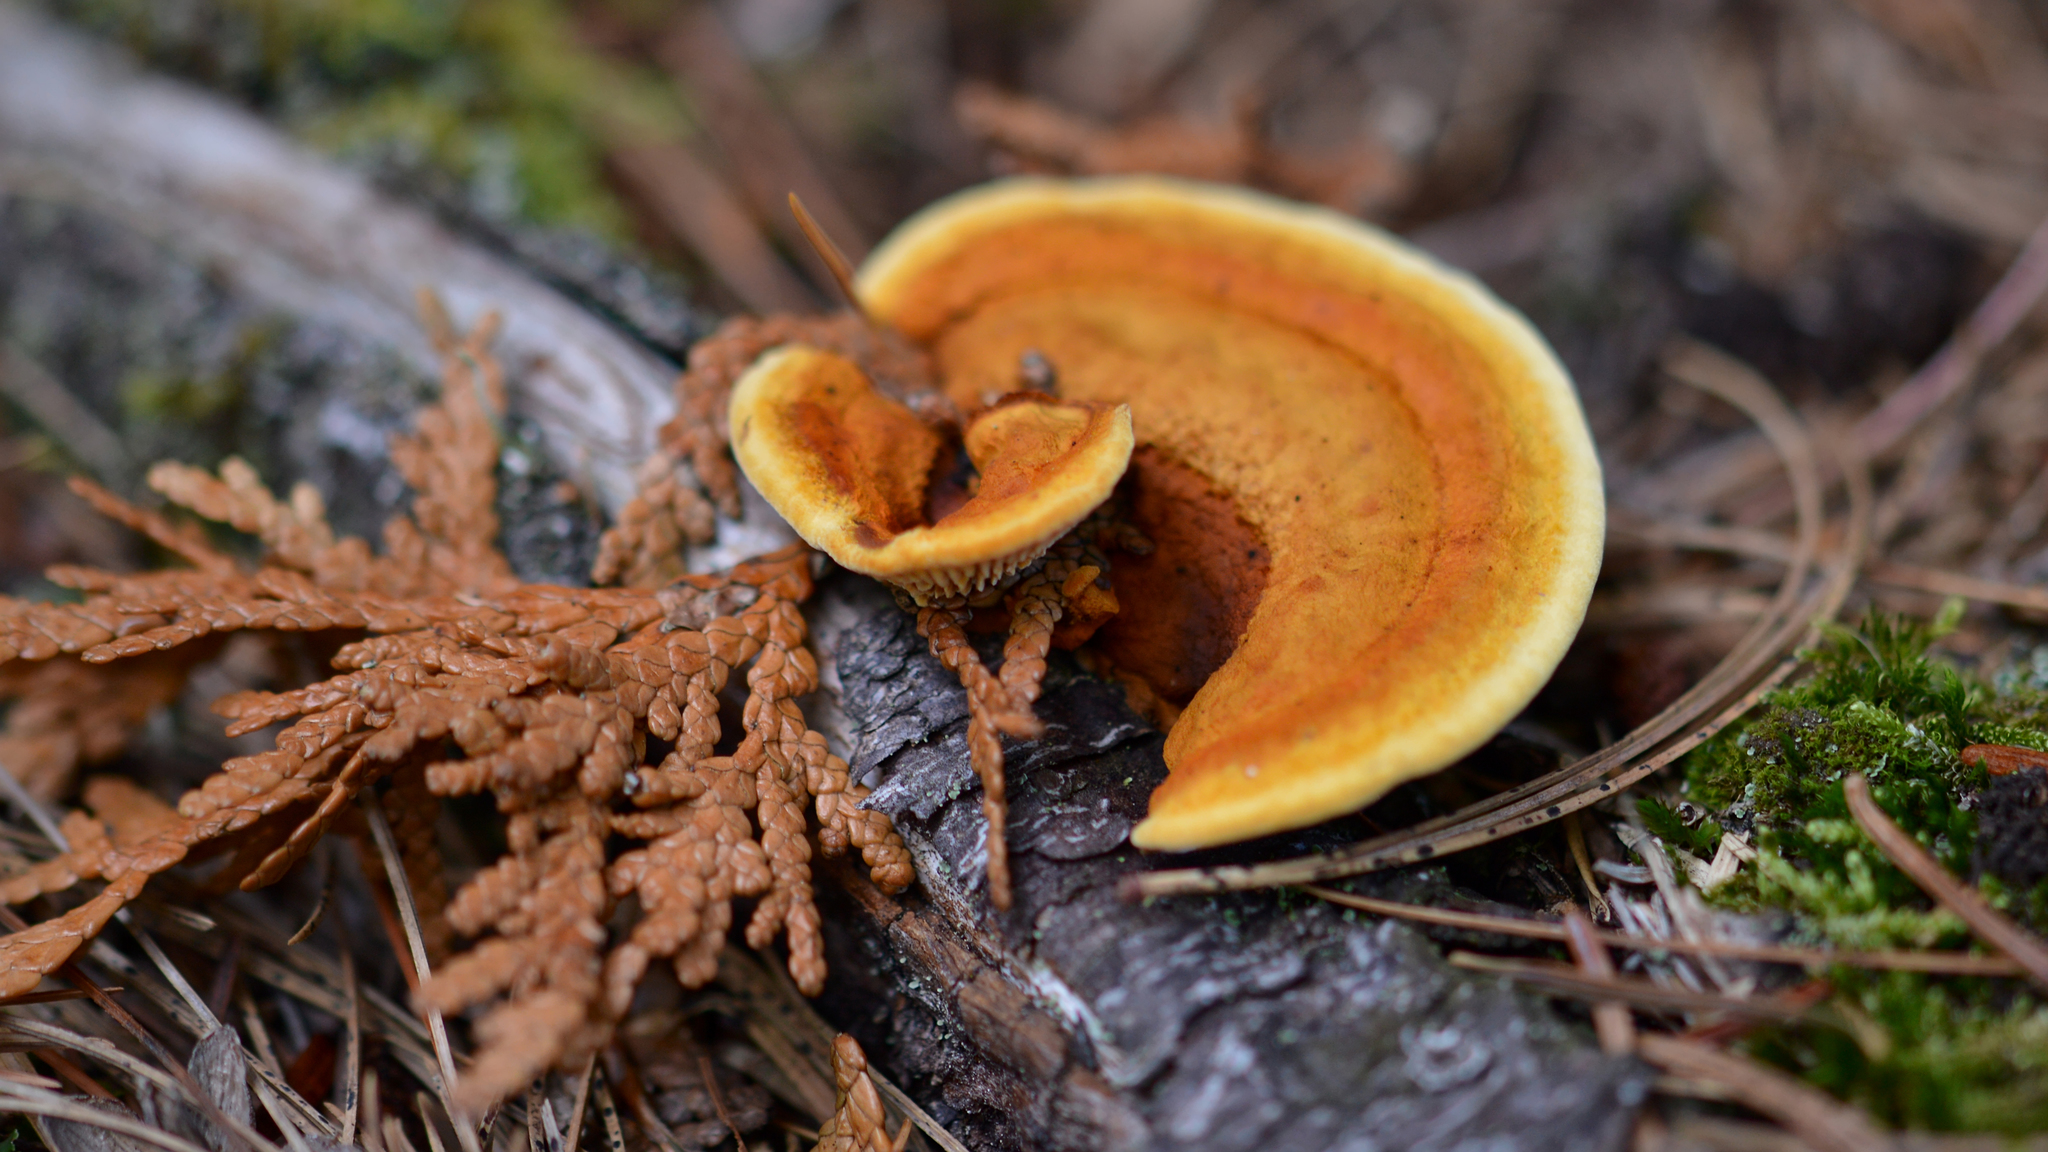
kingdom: Fungi
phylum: Basidiomycota
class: Agaricomycetes
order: Gloeophyllales
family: Gloeophyllaceae
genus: Gloeophyllum
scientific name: Gloeophyllum sepiarium
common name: Conifer mazegill
